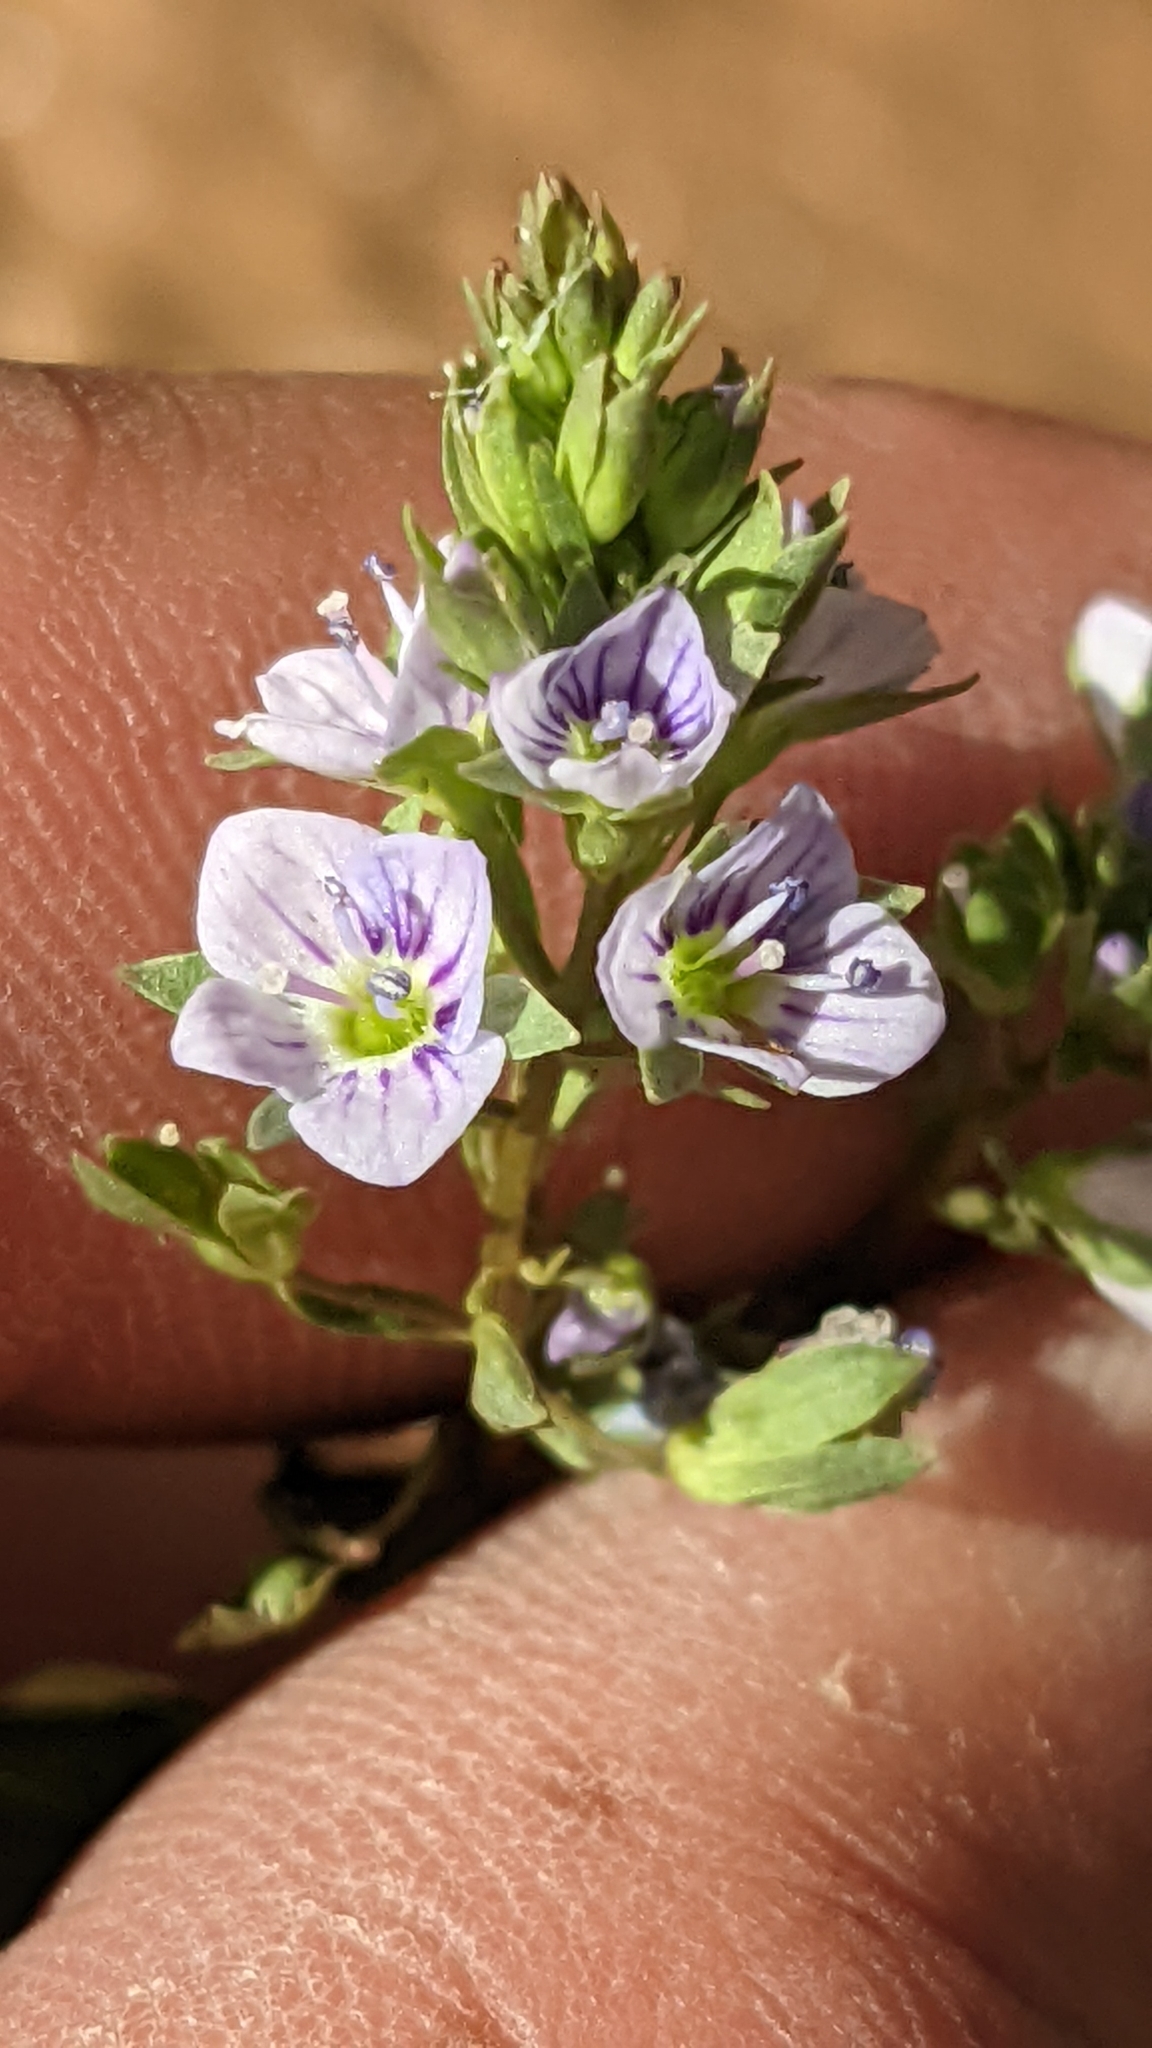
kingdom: Plantae
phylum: Tracheophyta
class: Magnoliopsida
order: Lamiales
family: Plantaginaceae
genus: Veronica
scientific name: Veronica anagallis-aquatica
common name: Water speedwell
